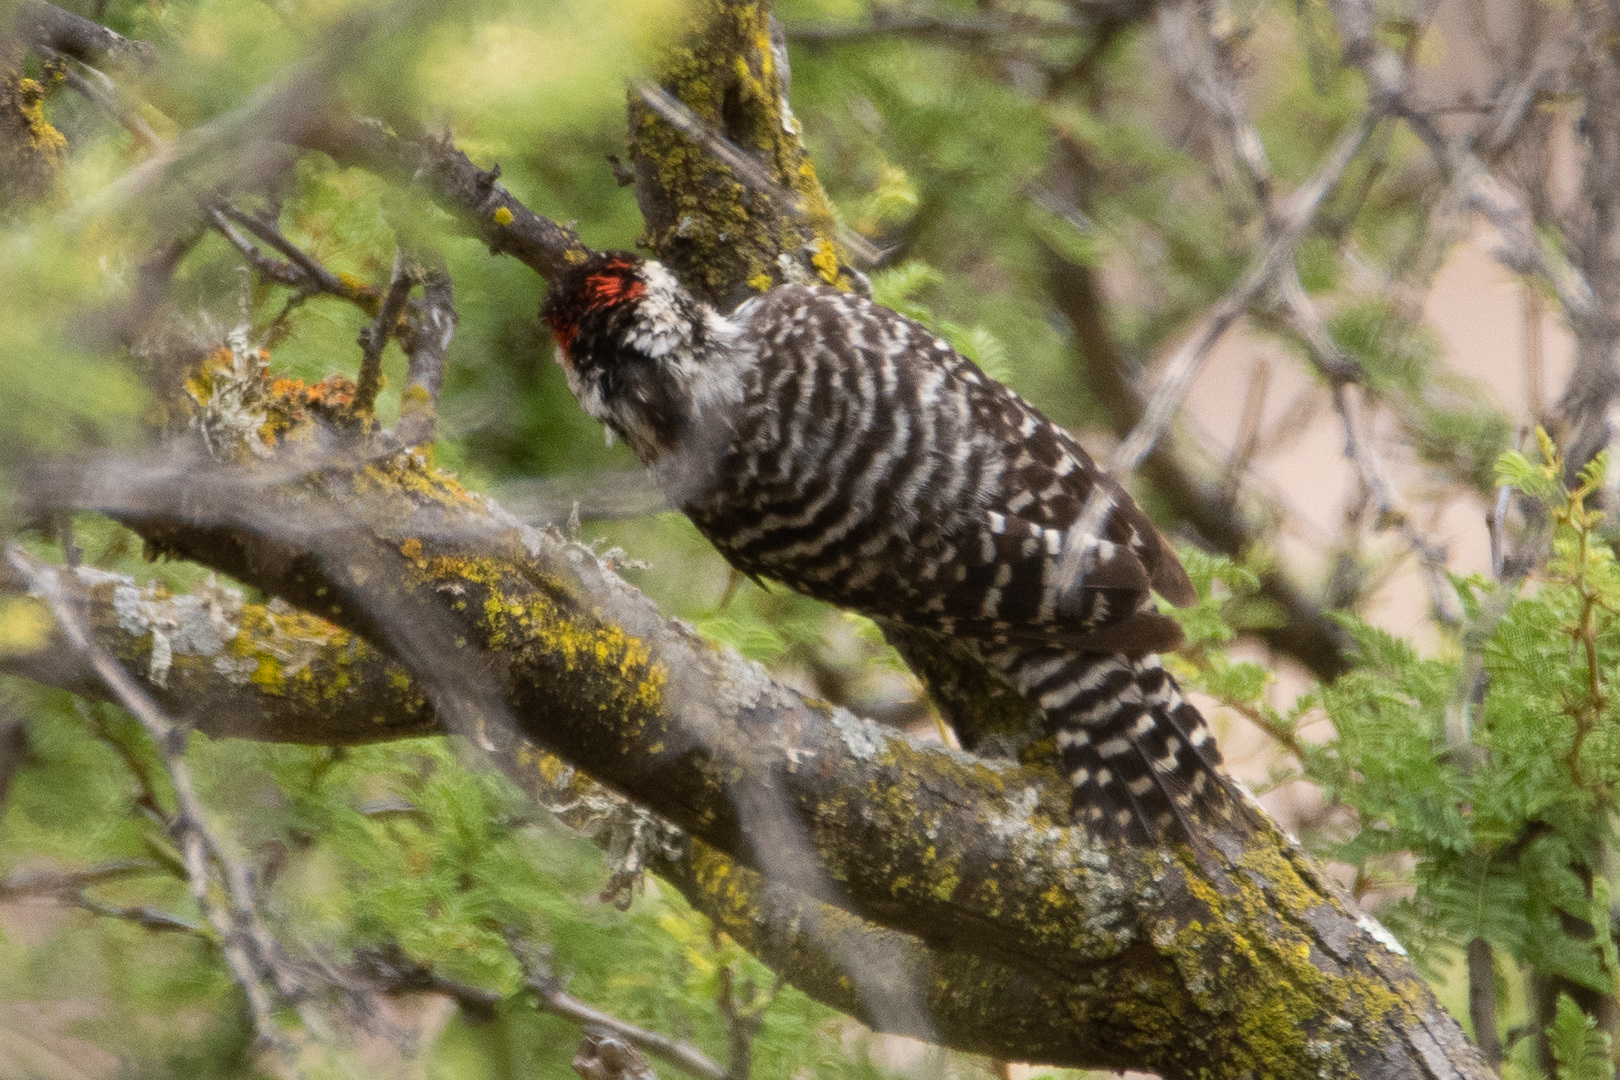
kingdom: Animalia
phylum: Chordata
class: Aves
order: Piciformes
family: Picidae
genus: Veniliornis
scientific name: Veniliornis lignarius
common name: Striped woodpecker
